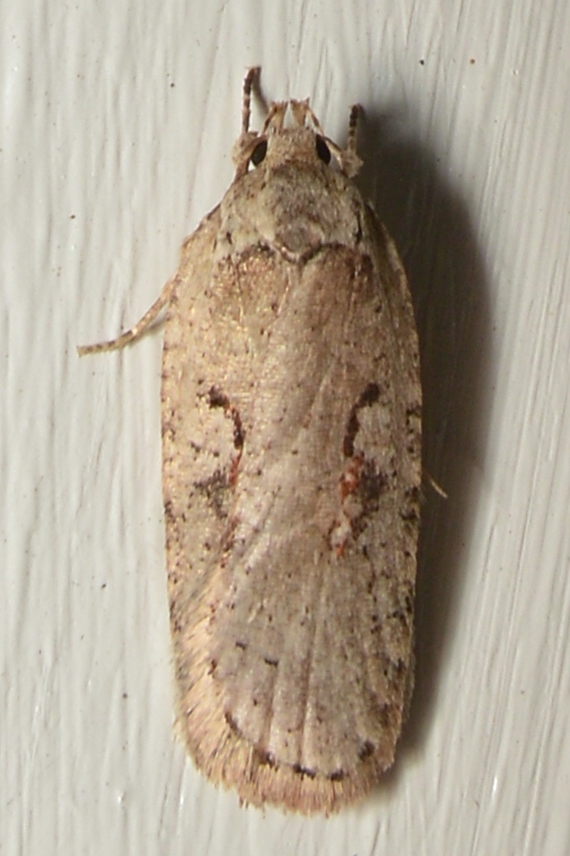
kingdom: Animalia
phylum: Arthropoda
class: Insecta
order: Lepidoptera
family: Depressariidae
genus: Agonopterix
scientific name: Agonopterix ocellana
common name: Red-letter flat-body
